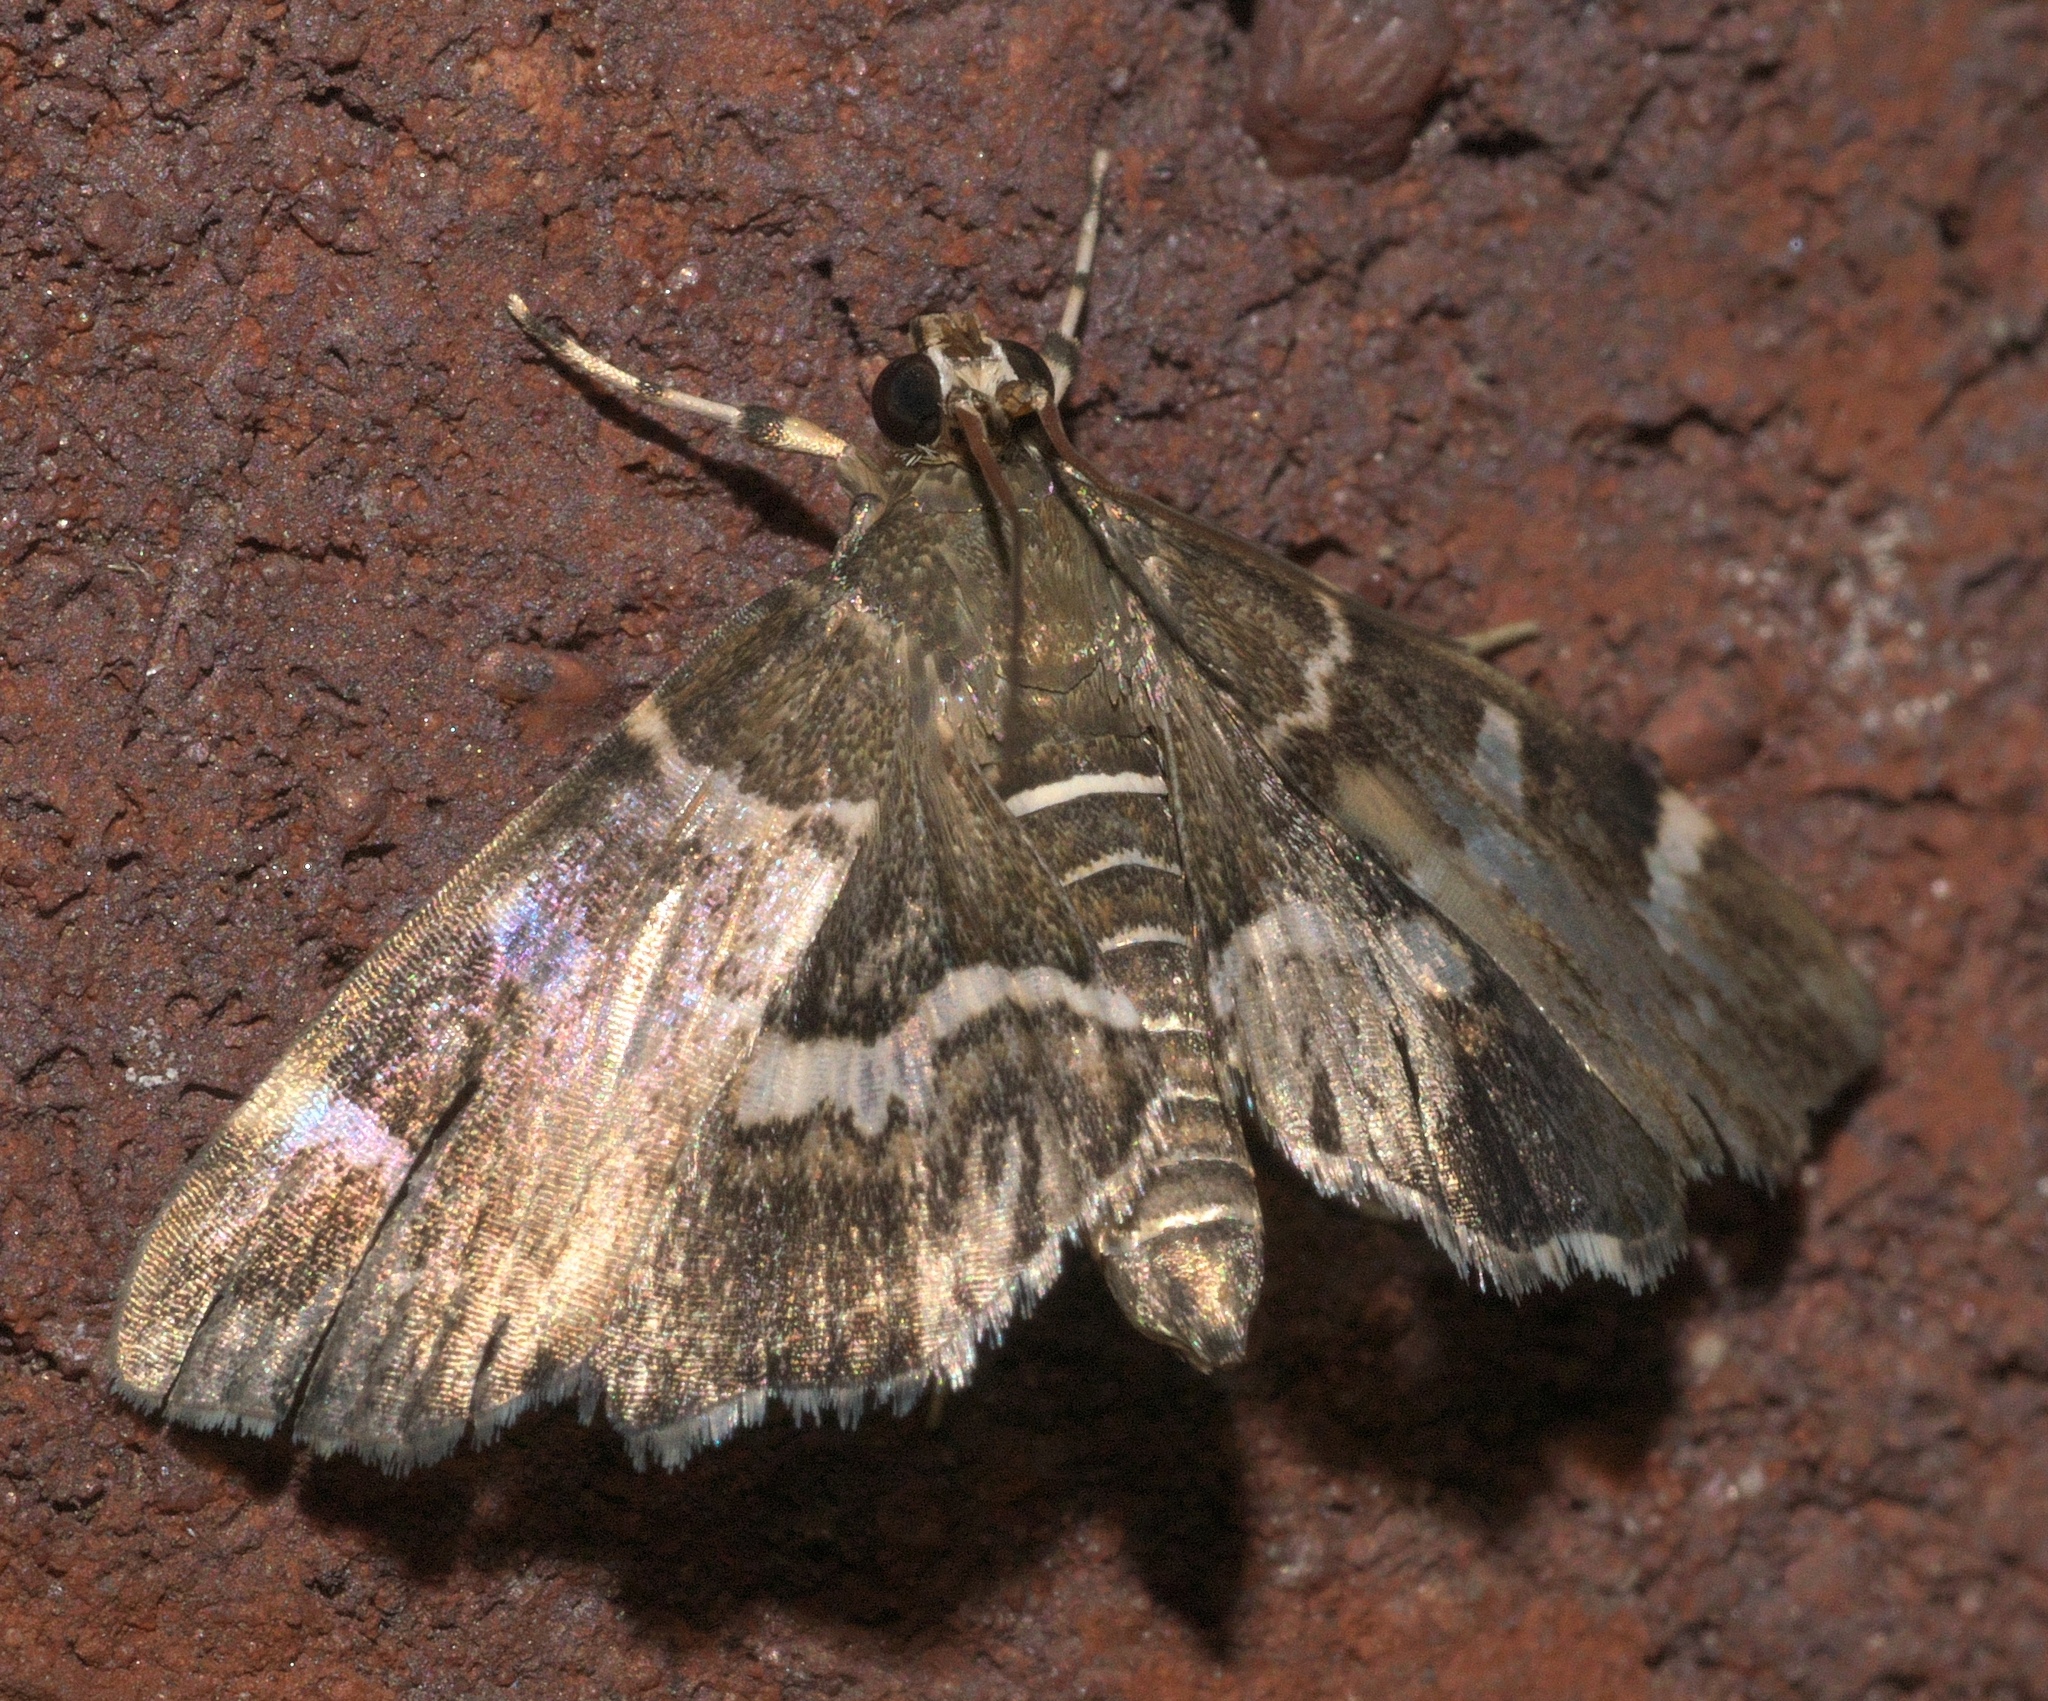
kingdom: Animalia
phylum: Arthropoda
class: Insecta
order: Lepidoptera
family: Crambidae
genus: Hymenia
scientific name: Hymenia perspectalis
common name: Spotted beet webworm
